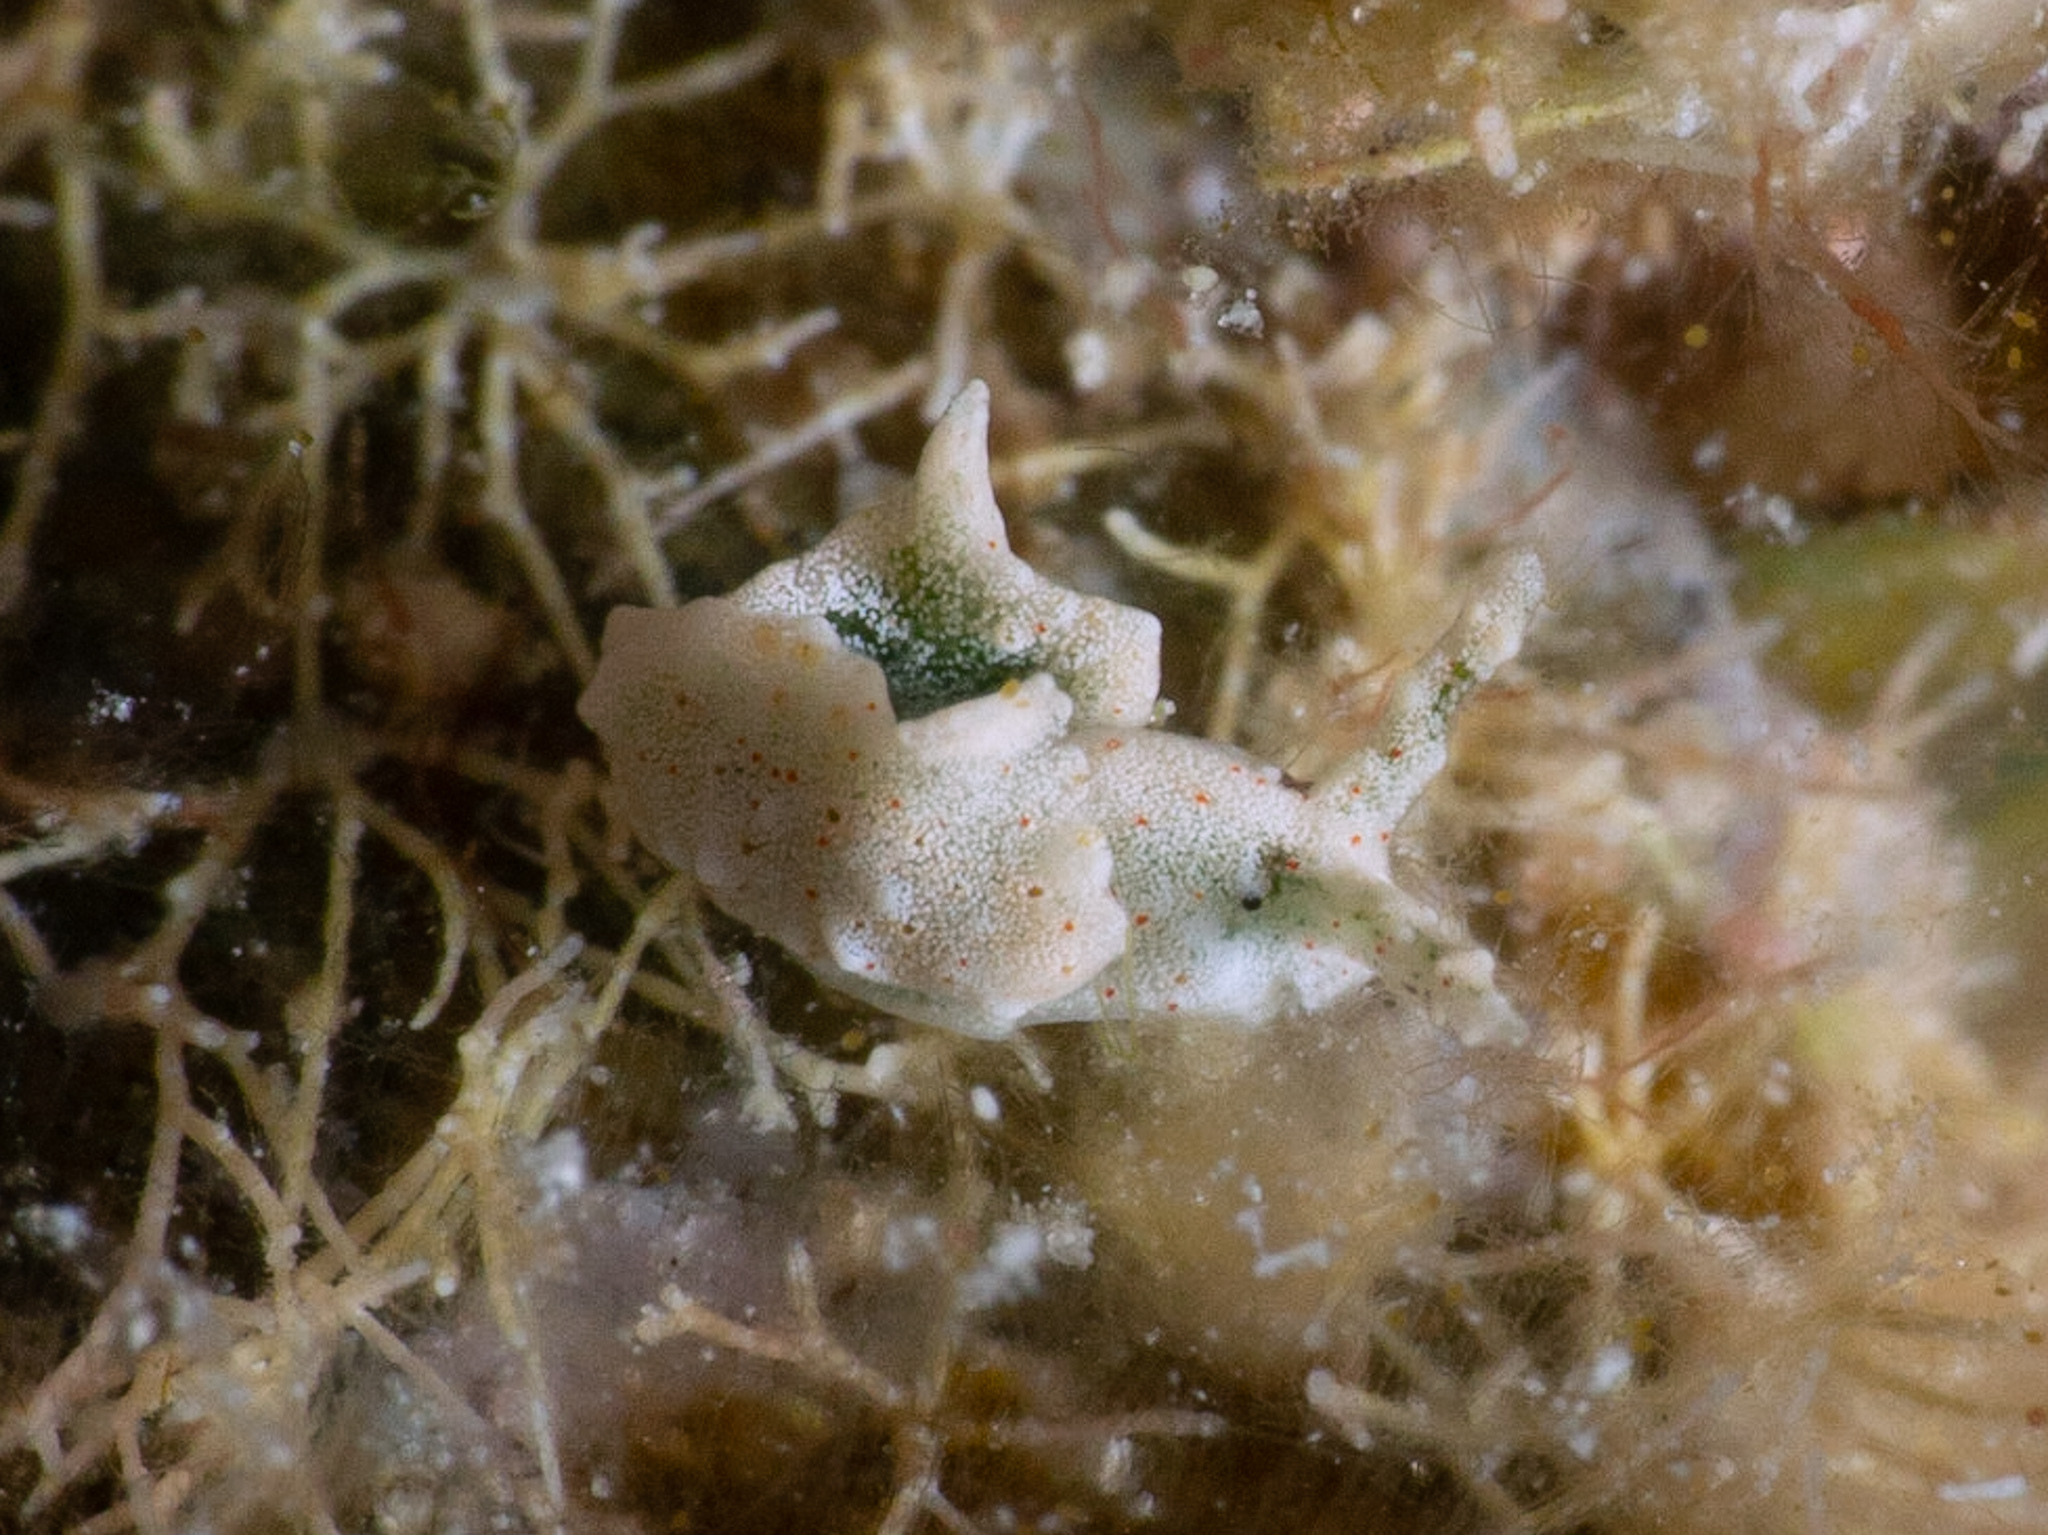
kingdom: Animalia
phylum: Mollusca
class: Gastropoda
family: Plakobranchidae
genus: Elysia
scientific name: Elysia cornigera
